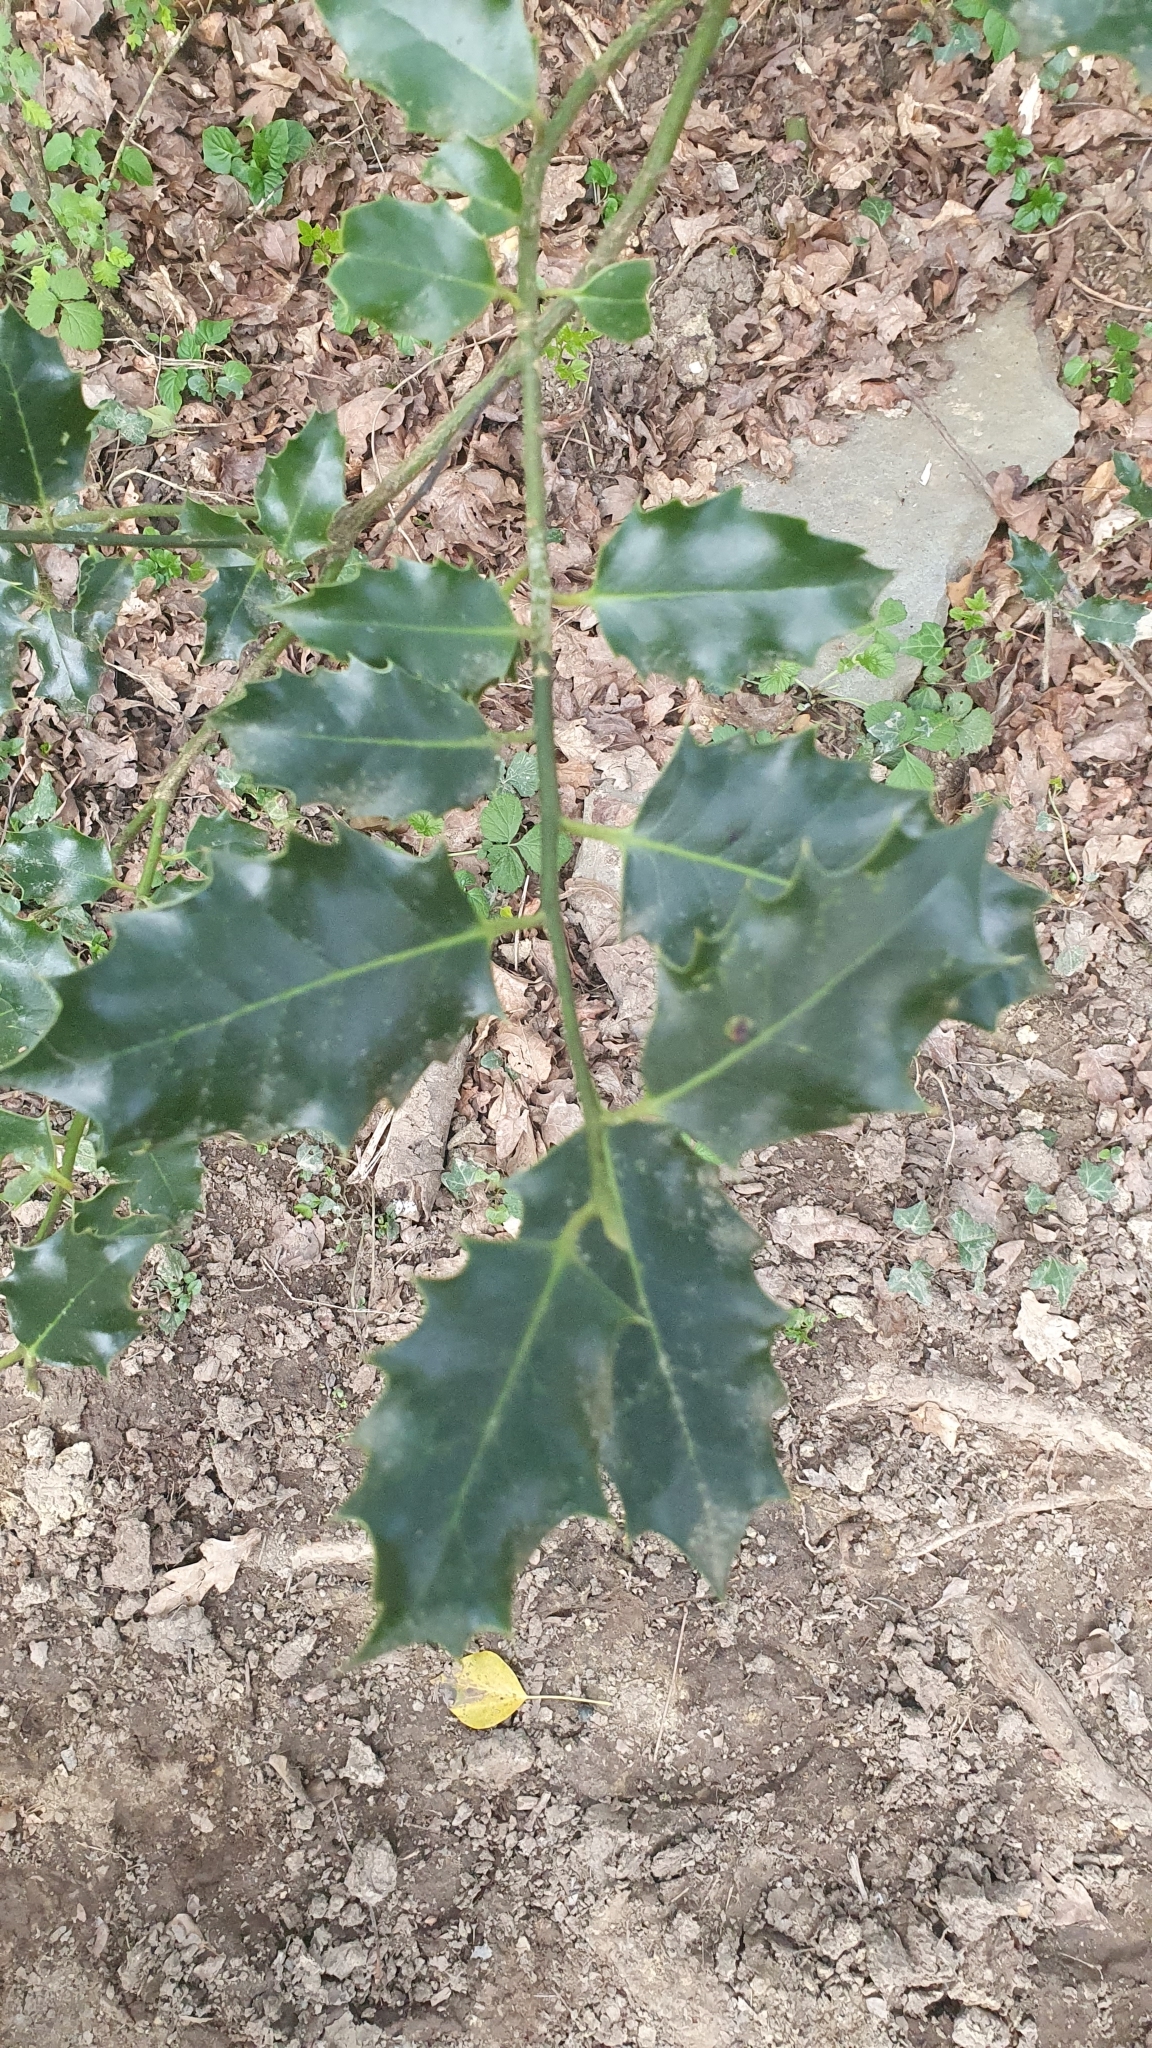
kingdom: Plantae
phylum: Tracheophyta
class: Magnoliopsida
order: Aquifoliales
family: Aquifoliaceae
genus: Ilex
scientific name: Ilex aquifolium
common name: English holly
